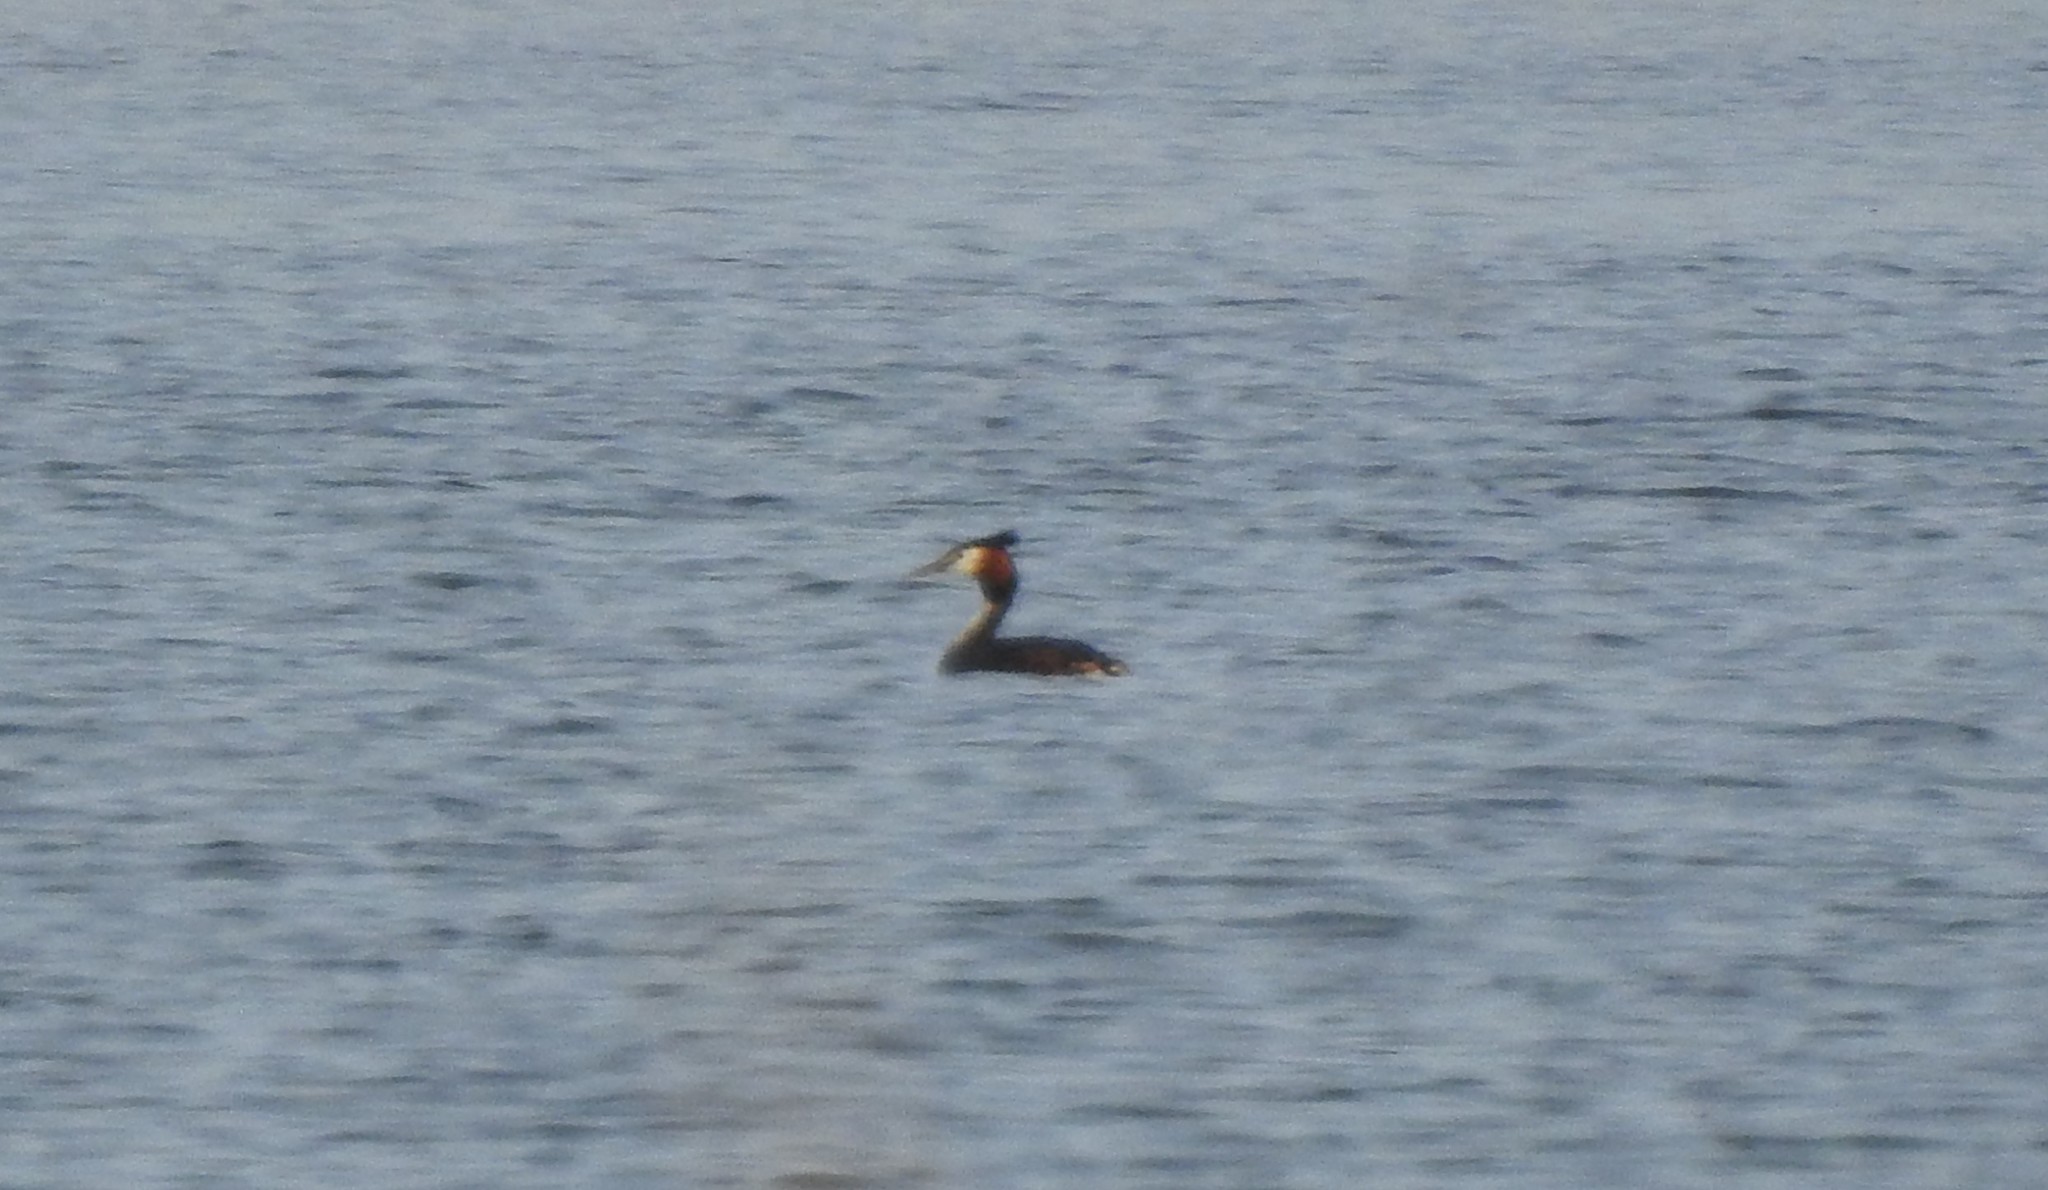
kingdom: Animalia
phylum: Chordata
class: Aves
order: Podicipediformes
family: Podicipedidae
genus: Podiceps
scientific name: Podiceps cristatus
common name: Great crested grebe
